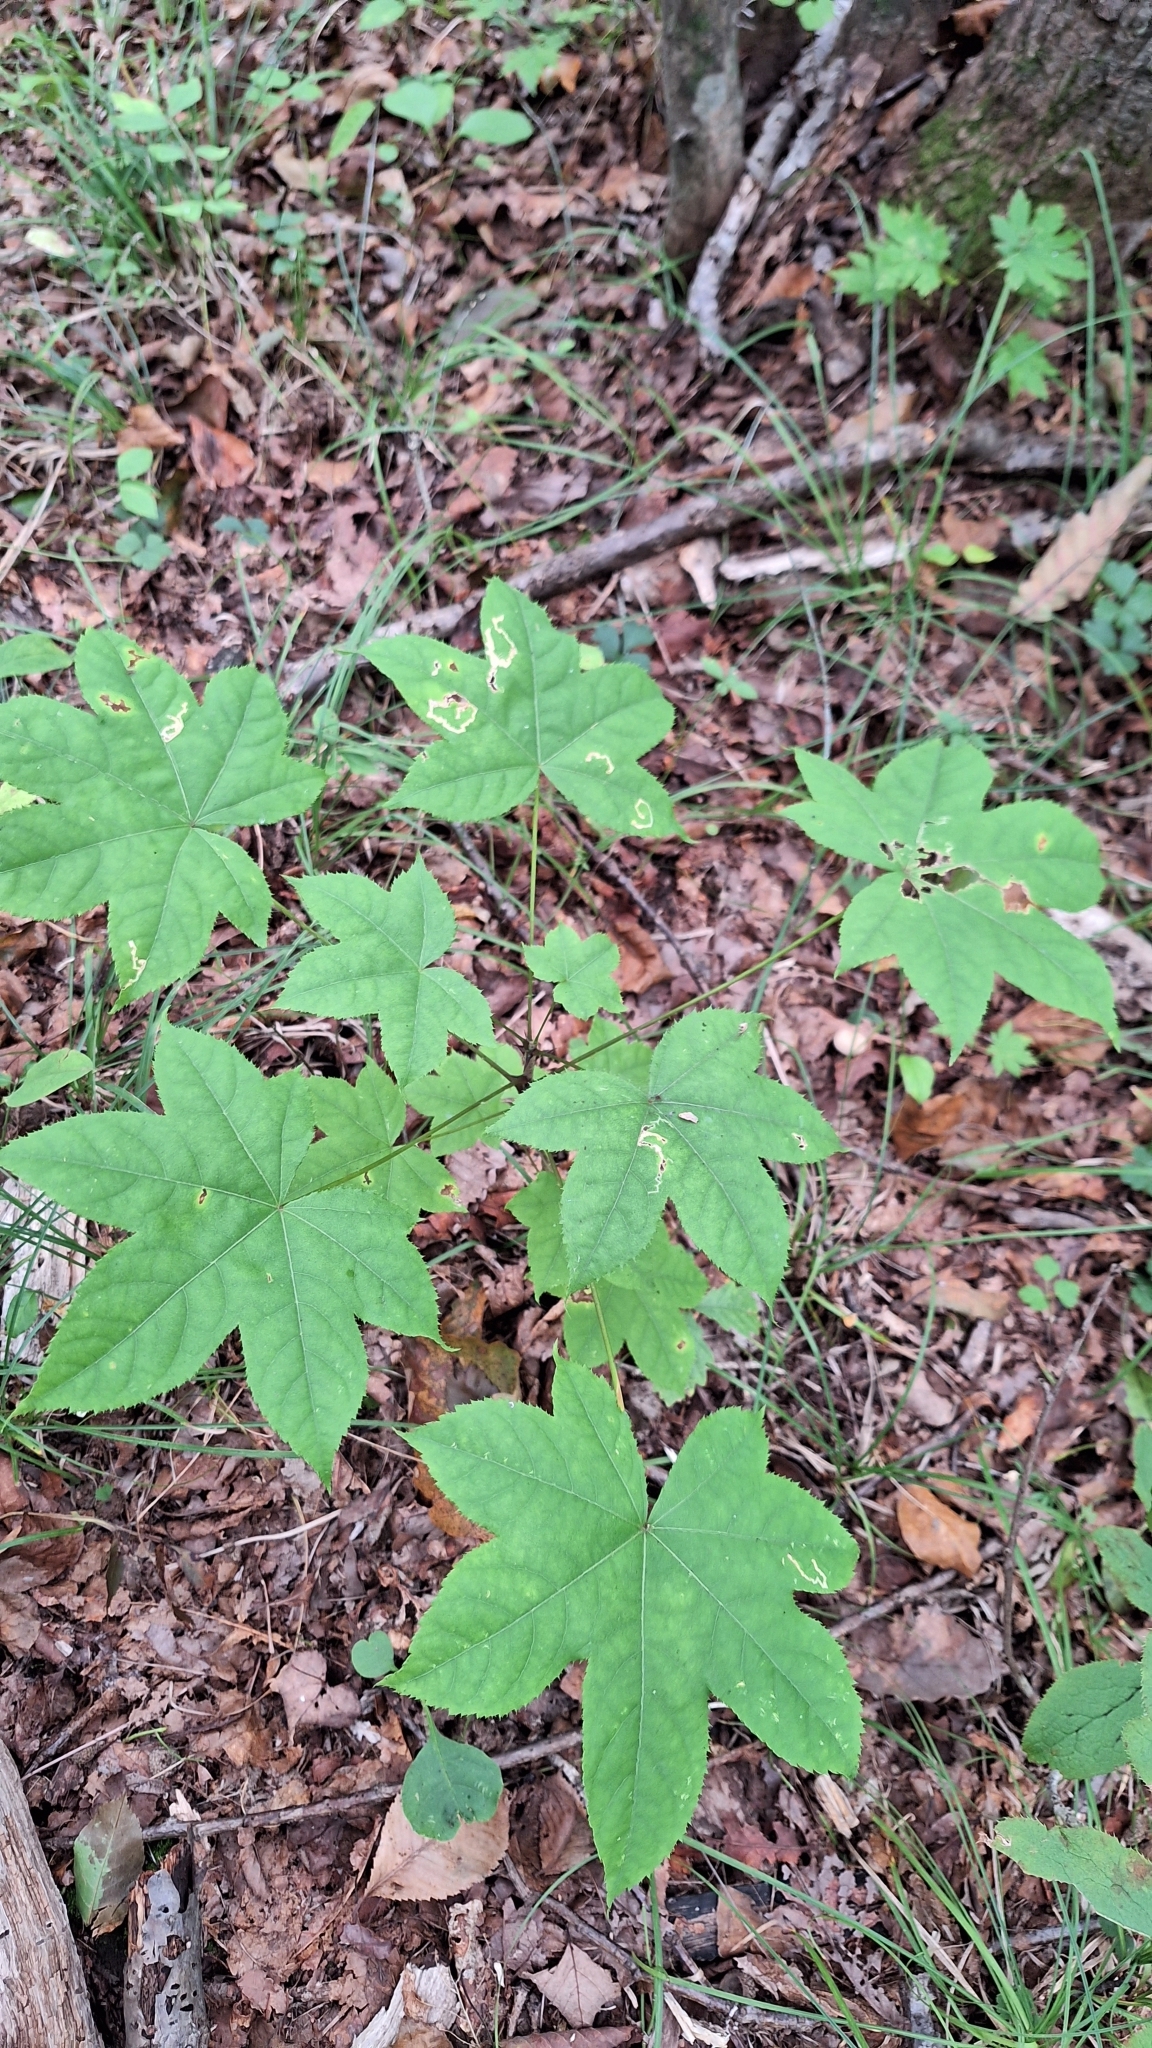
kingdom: Plantae
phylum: Tracheophyta
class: Magnoliopsida
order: Apiales
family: Araliaceae
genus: Kalopanax
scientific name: Kalopanax septemlobus
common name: Castor aralia
